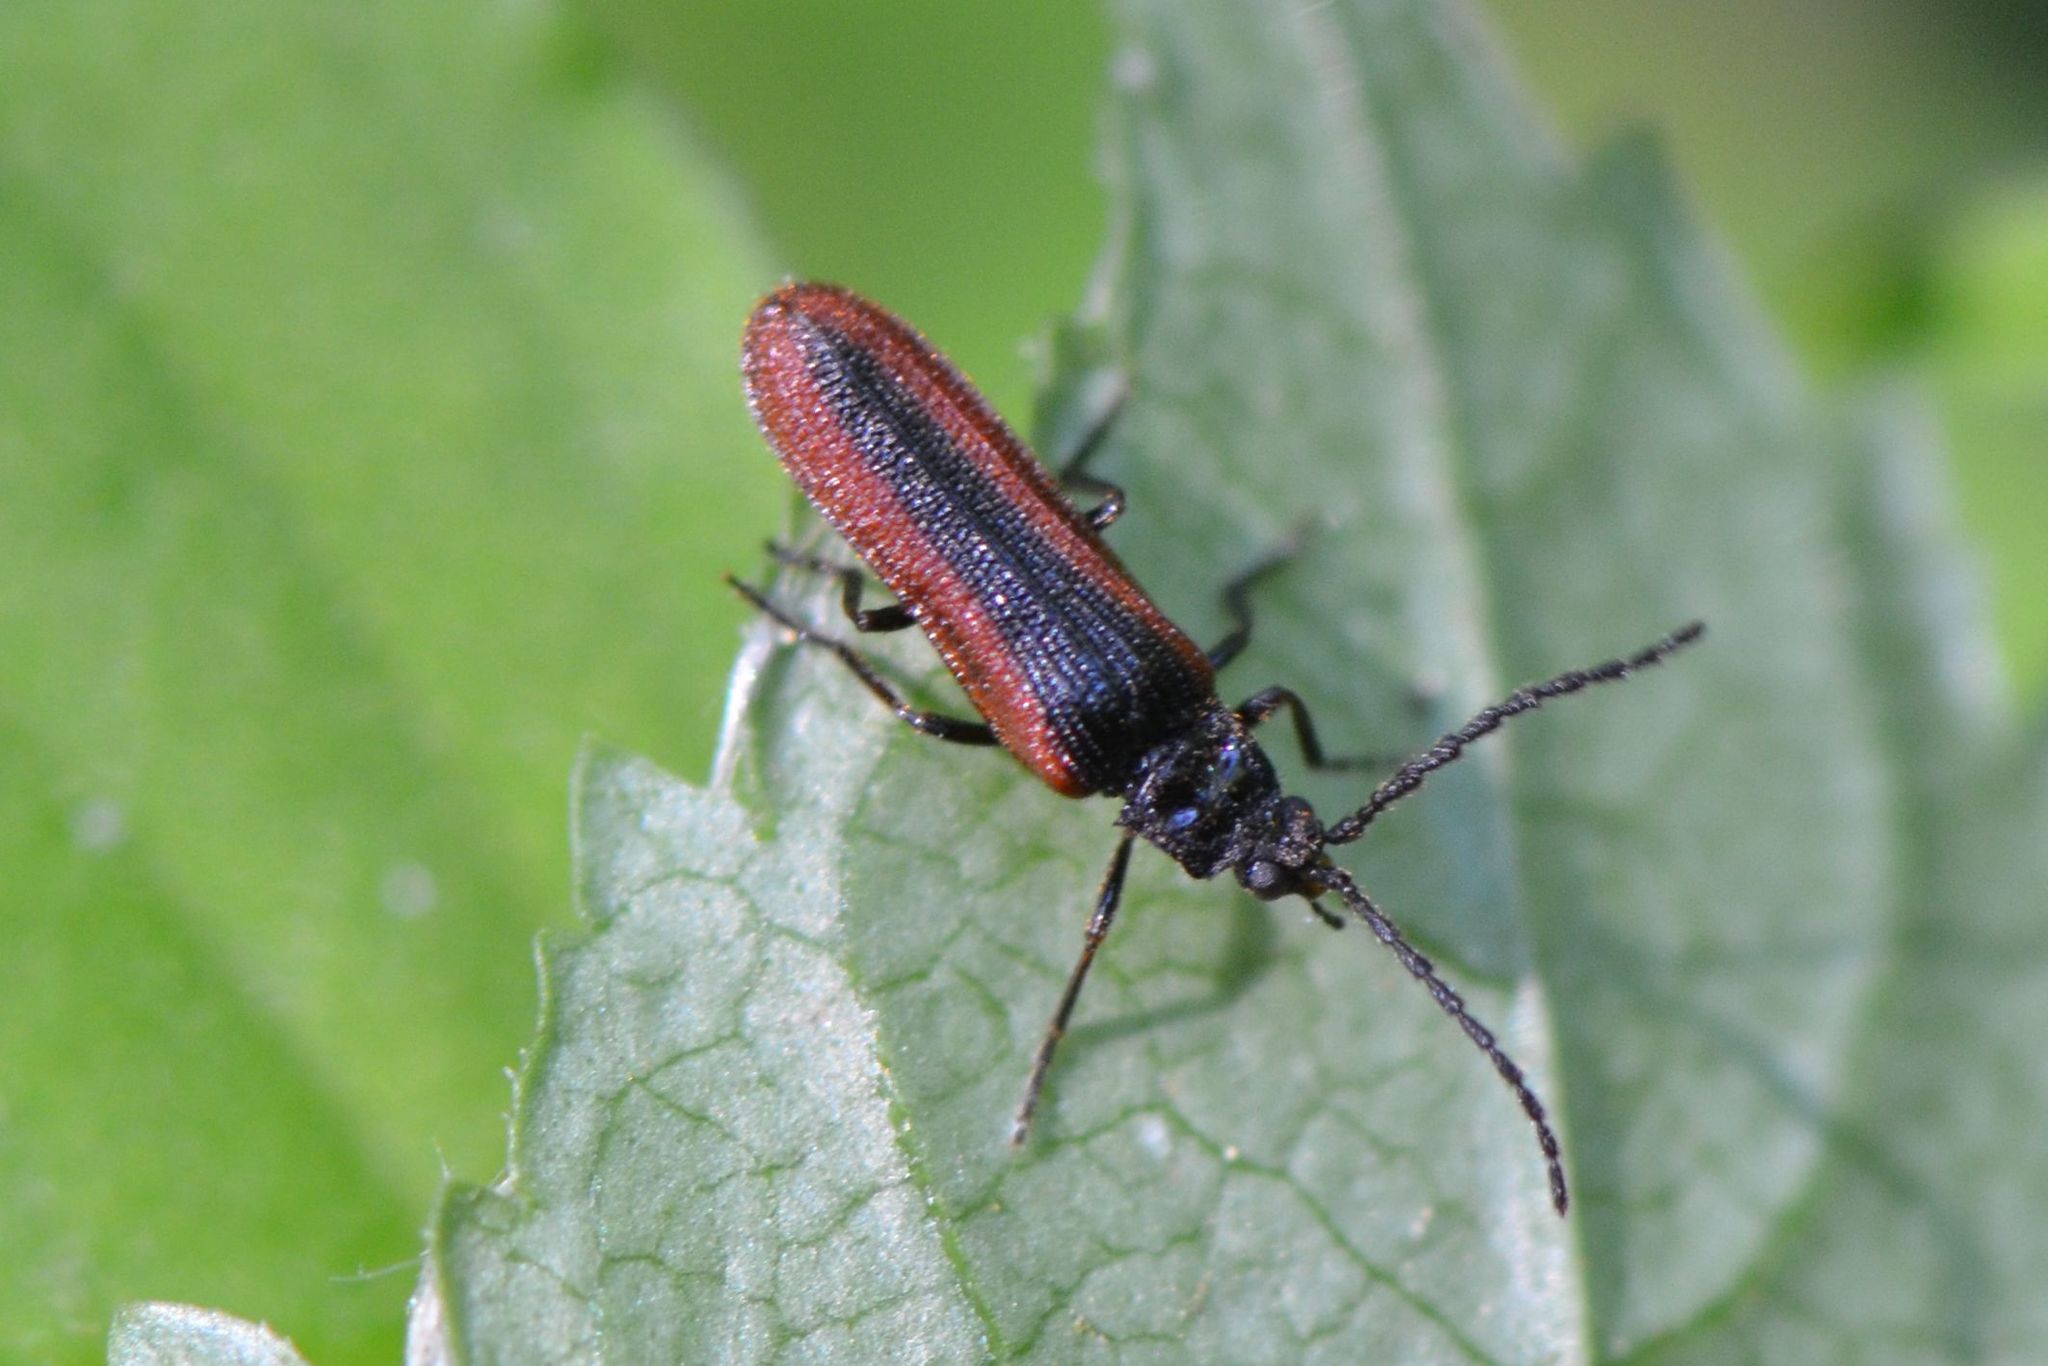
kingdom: Animalia
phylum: Arthropoda
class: Insecta
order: Coleoptera
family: Omalisidae
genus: Omalisus
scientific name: Omalisus fontisbellaquei
